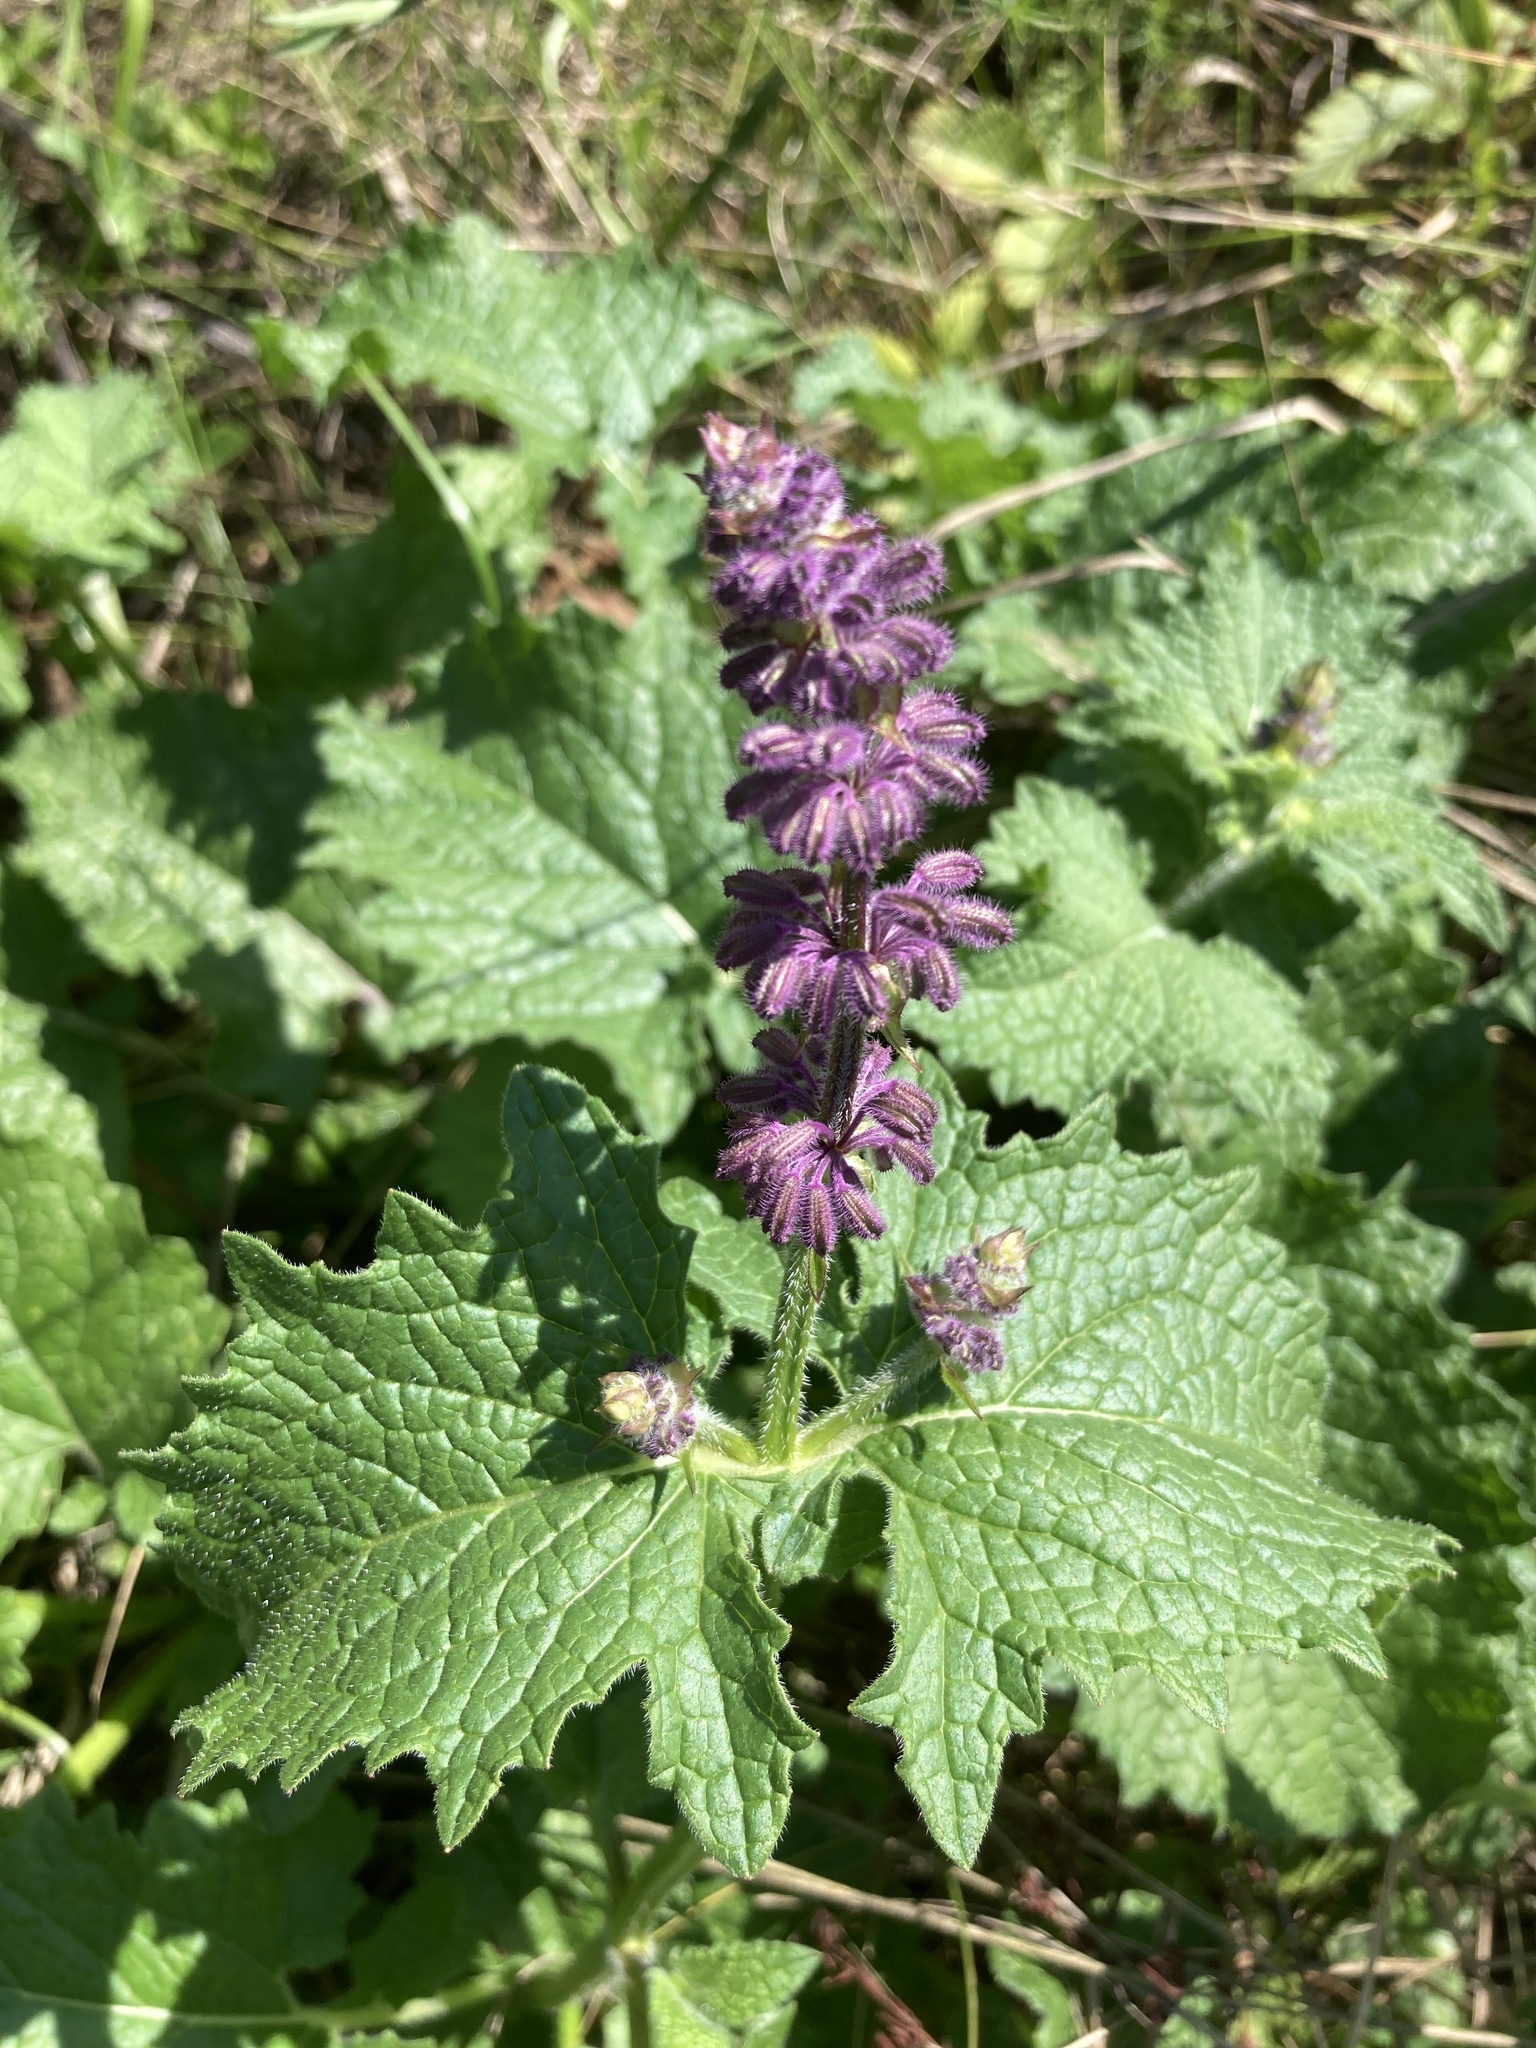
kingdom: Plantae
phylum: Tracheophyta
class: Magnoliopsida
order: Lamiales
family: Lamiaceae
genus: Salvia
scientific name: Salvia verticillata
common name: Whorled clary
